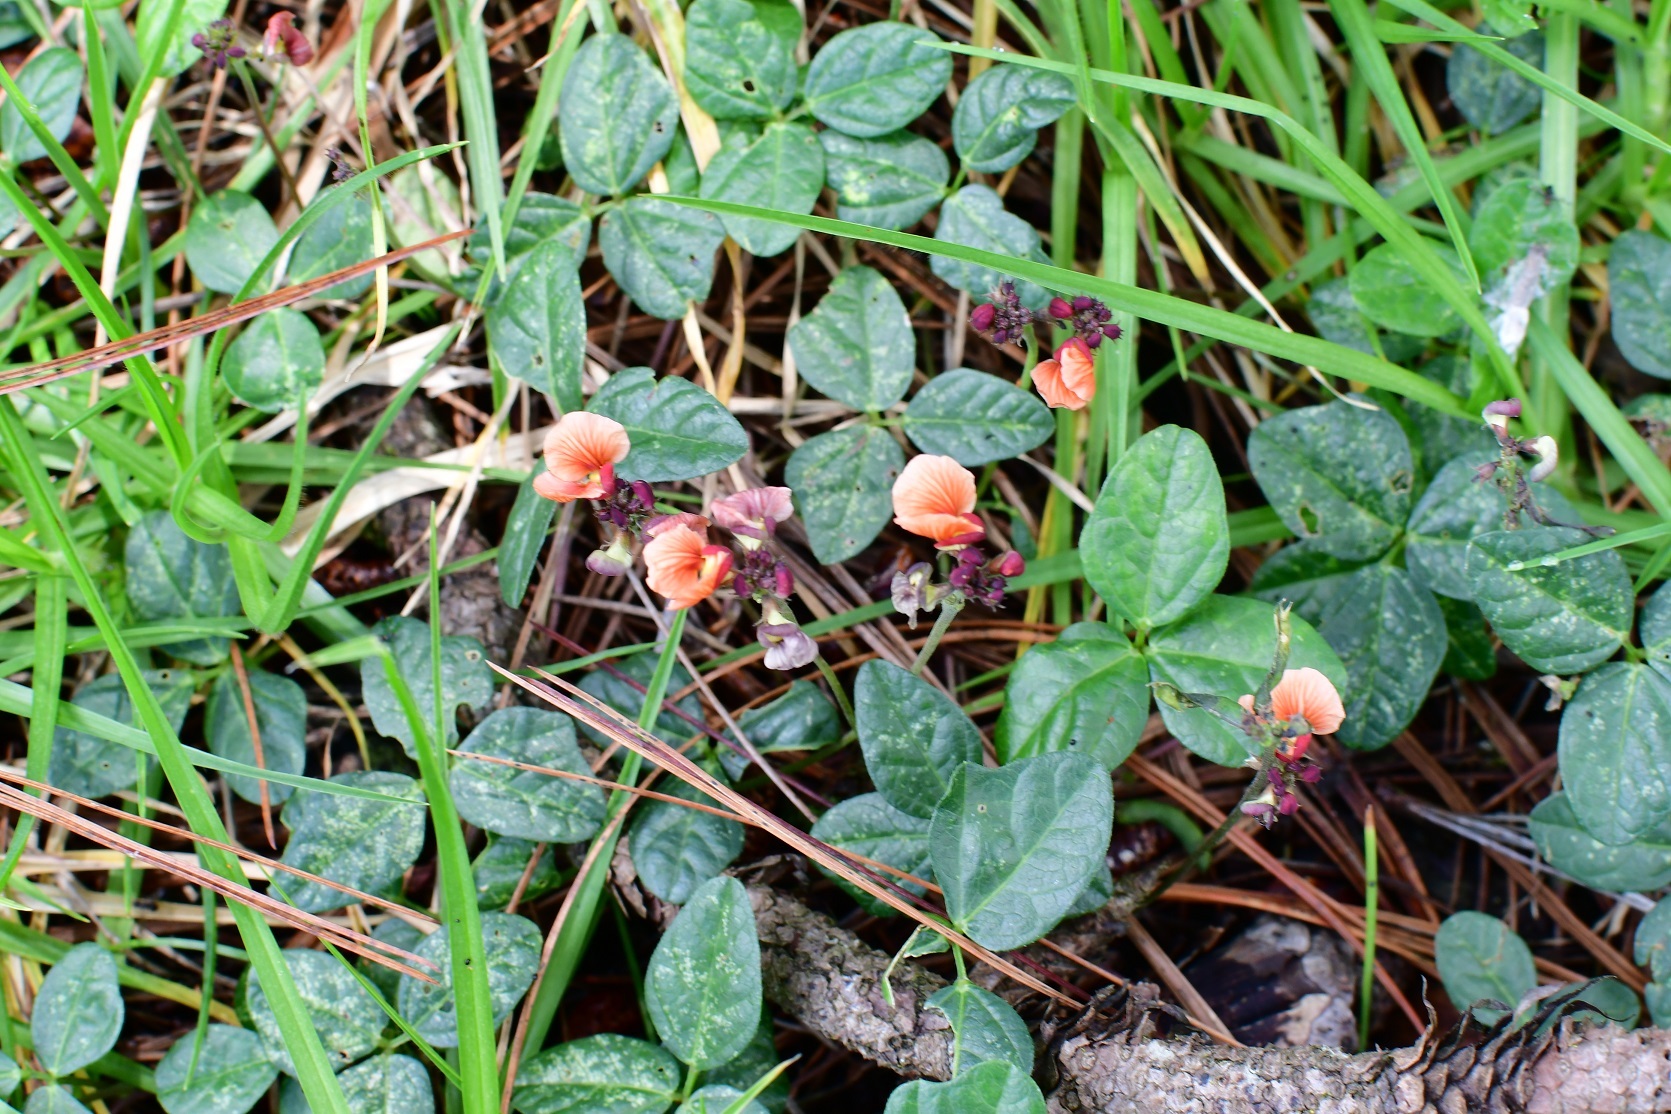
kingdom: Plantae
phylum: Tracheophyta
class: Magnoliopsida
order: Fabales
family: Fabaceae
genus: Macroptilium
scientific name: Macroptilium gibbosifolium
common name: Variableleaf bushbean
